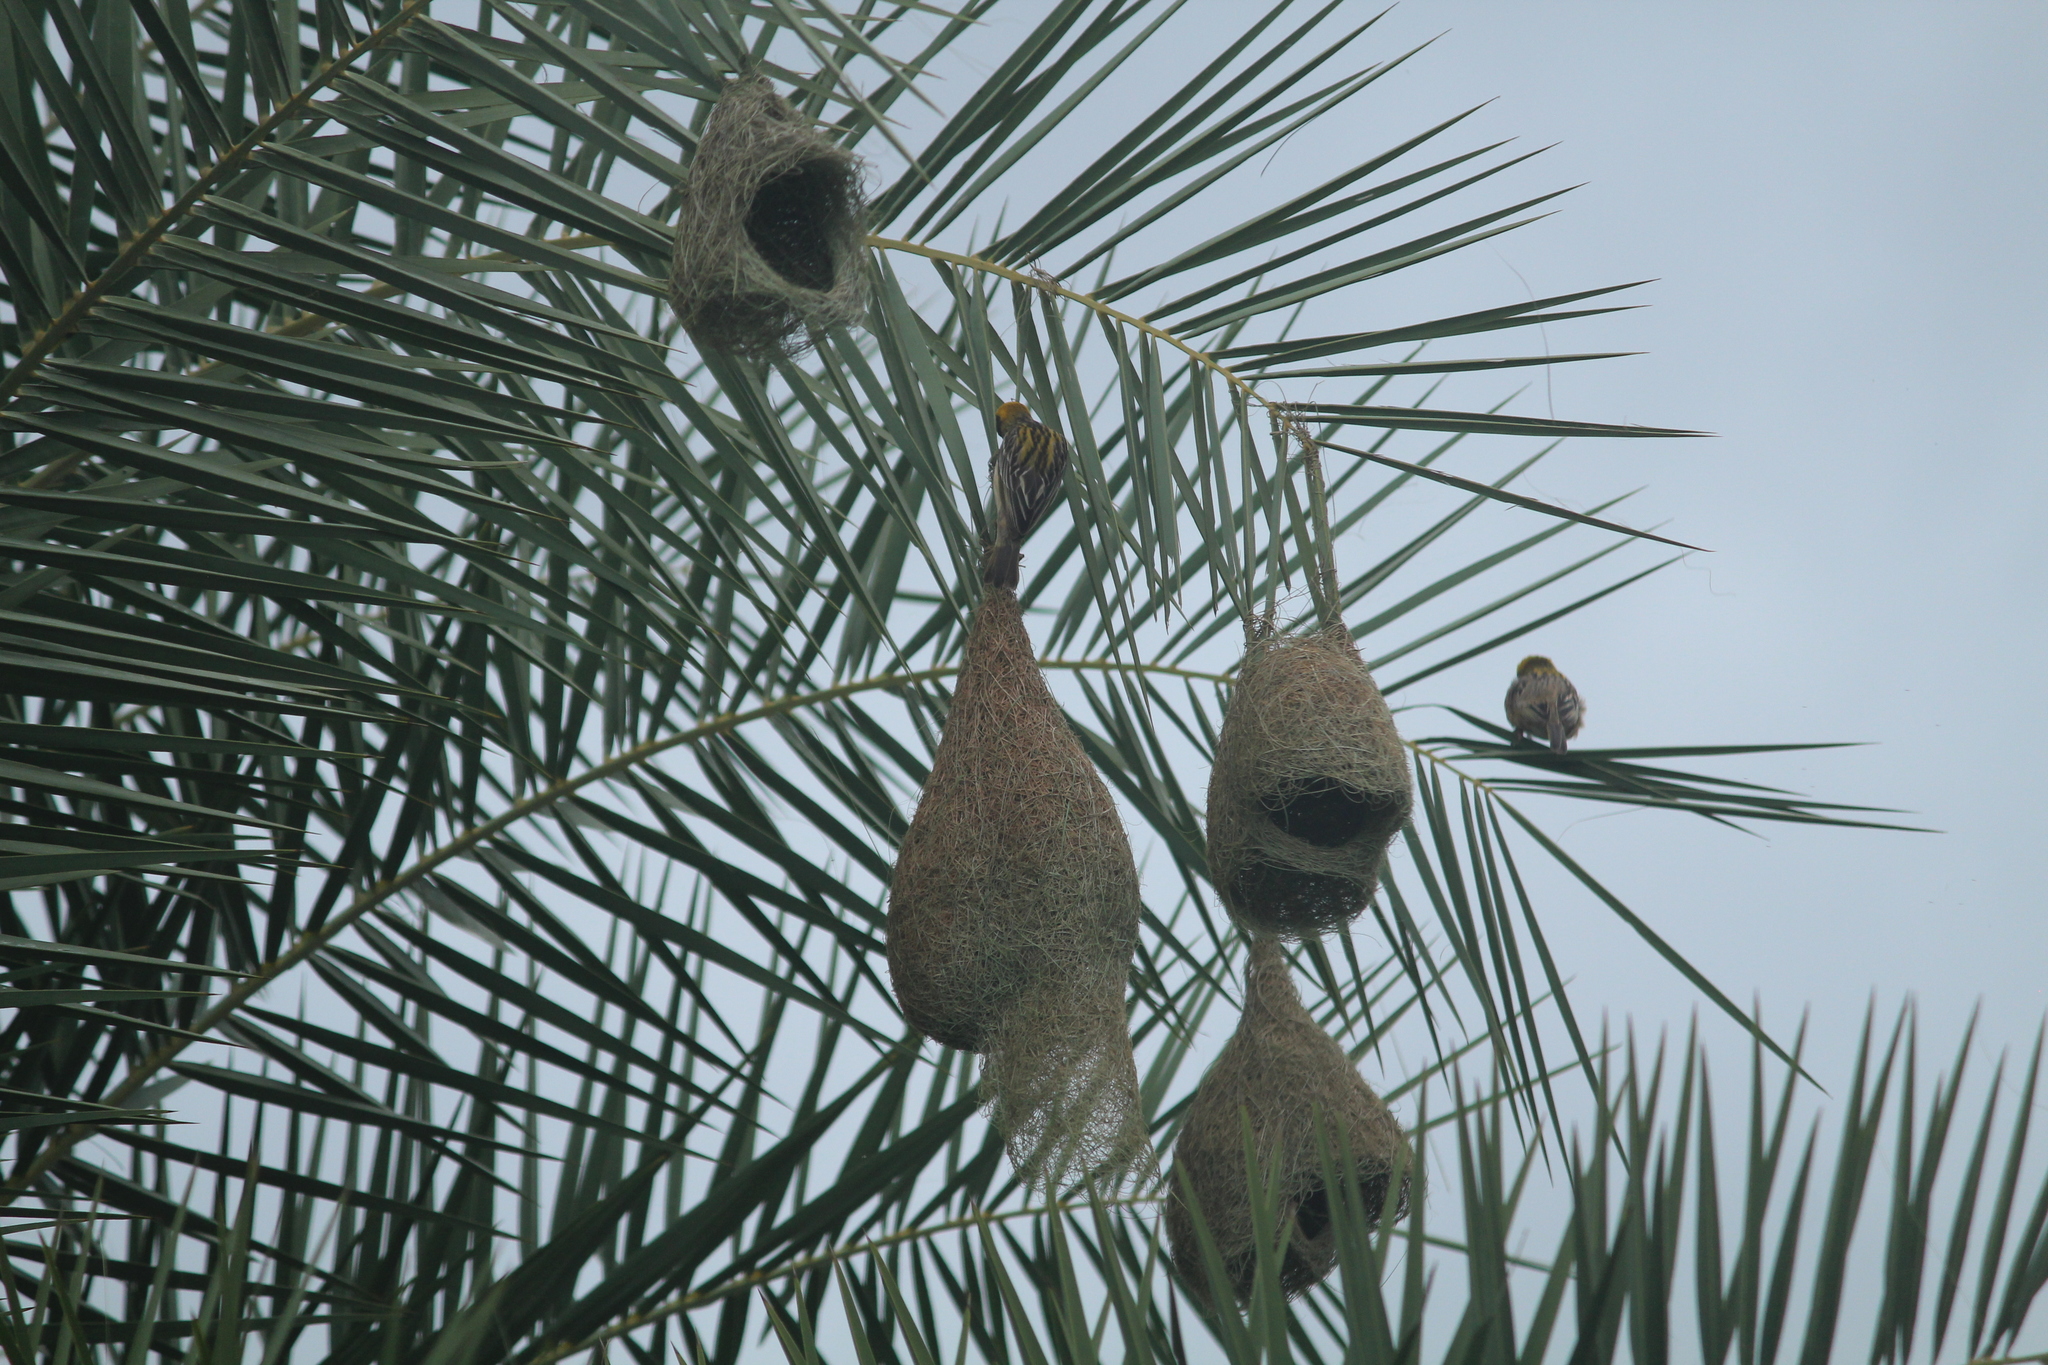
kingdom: Animalia
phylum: Chordata
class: Aves
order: Passeriformes
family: Ploceidae
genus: Ploceus
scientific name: Ploceus philippinus
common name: Baya weaver
